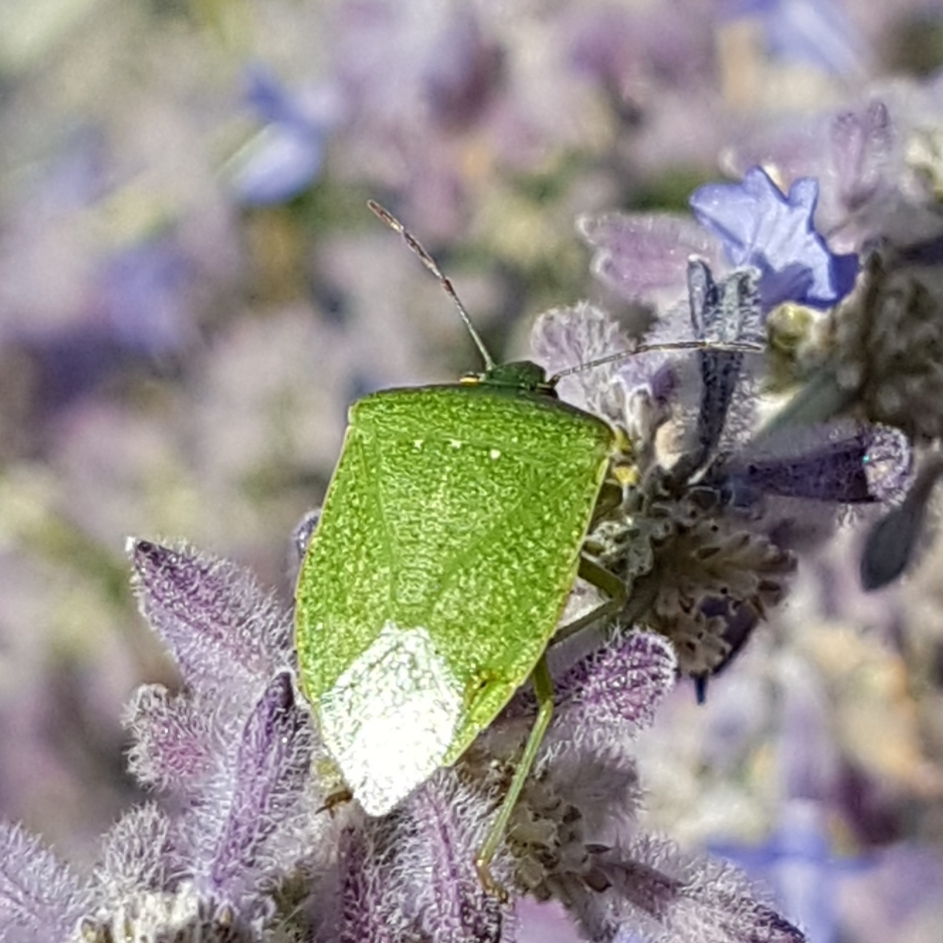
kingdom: Animalia
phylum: Arthropoda
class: Insecta
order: Hemiptera
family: Pentatomidae
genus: Nezara
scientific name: Nezara viridula
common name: Southern green stink bug
